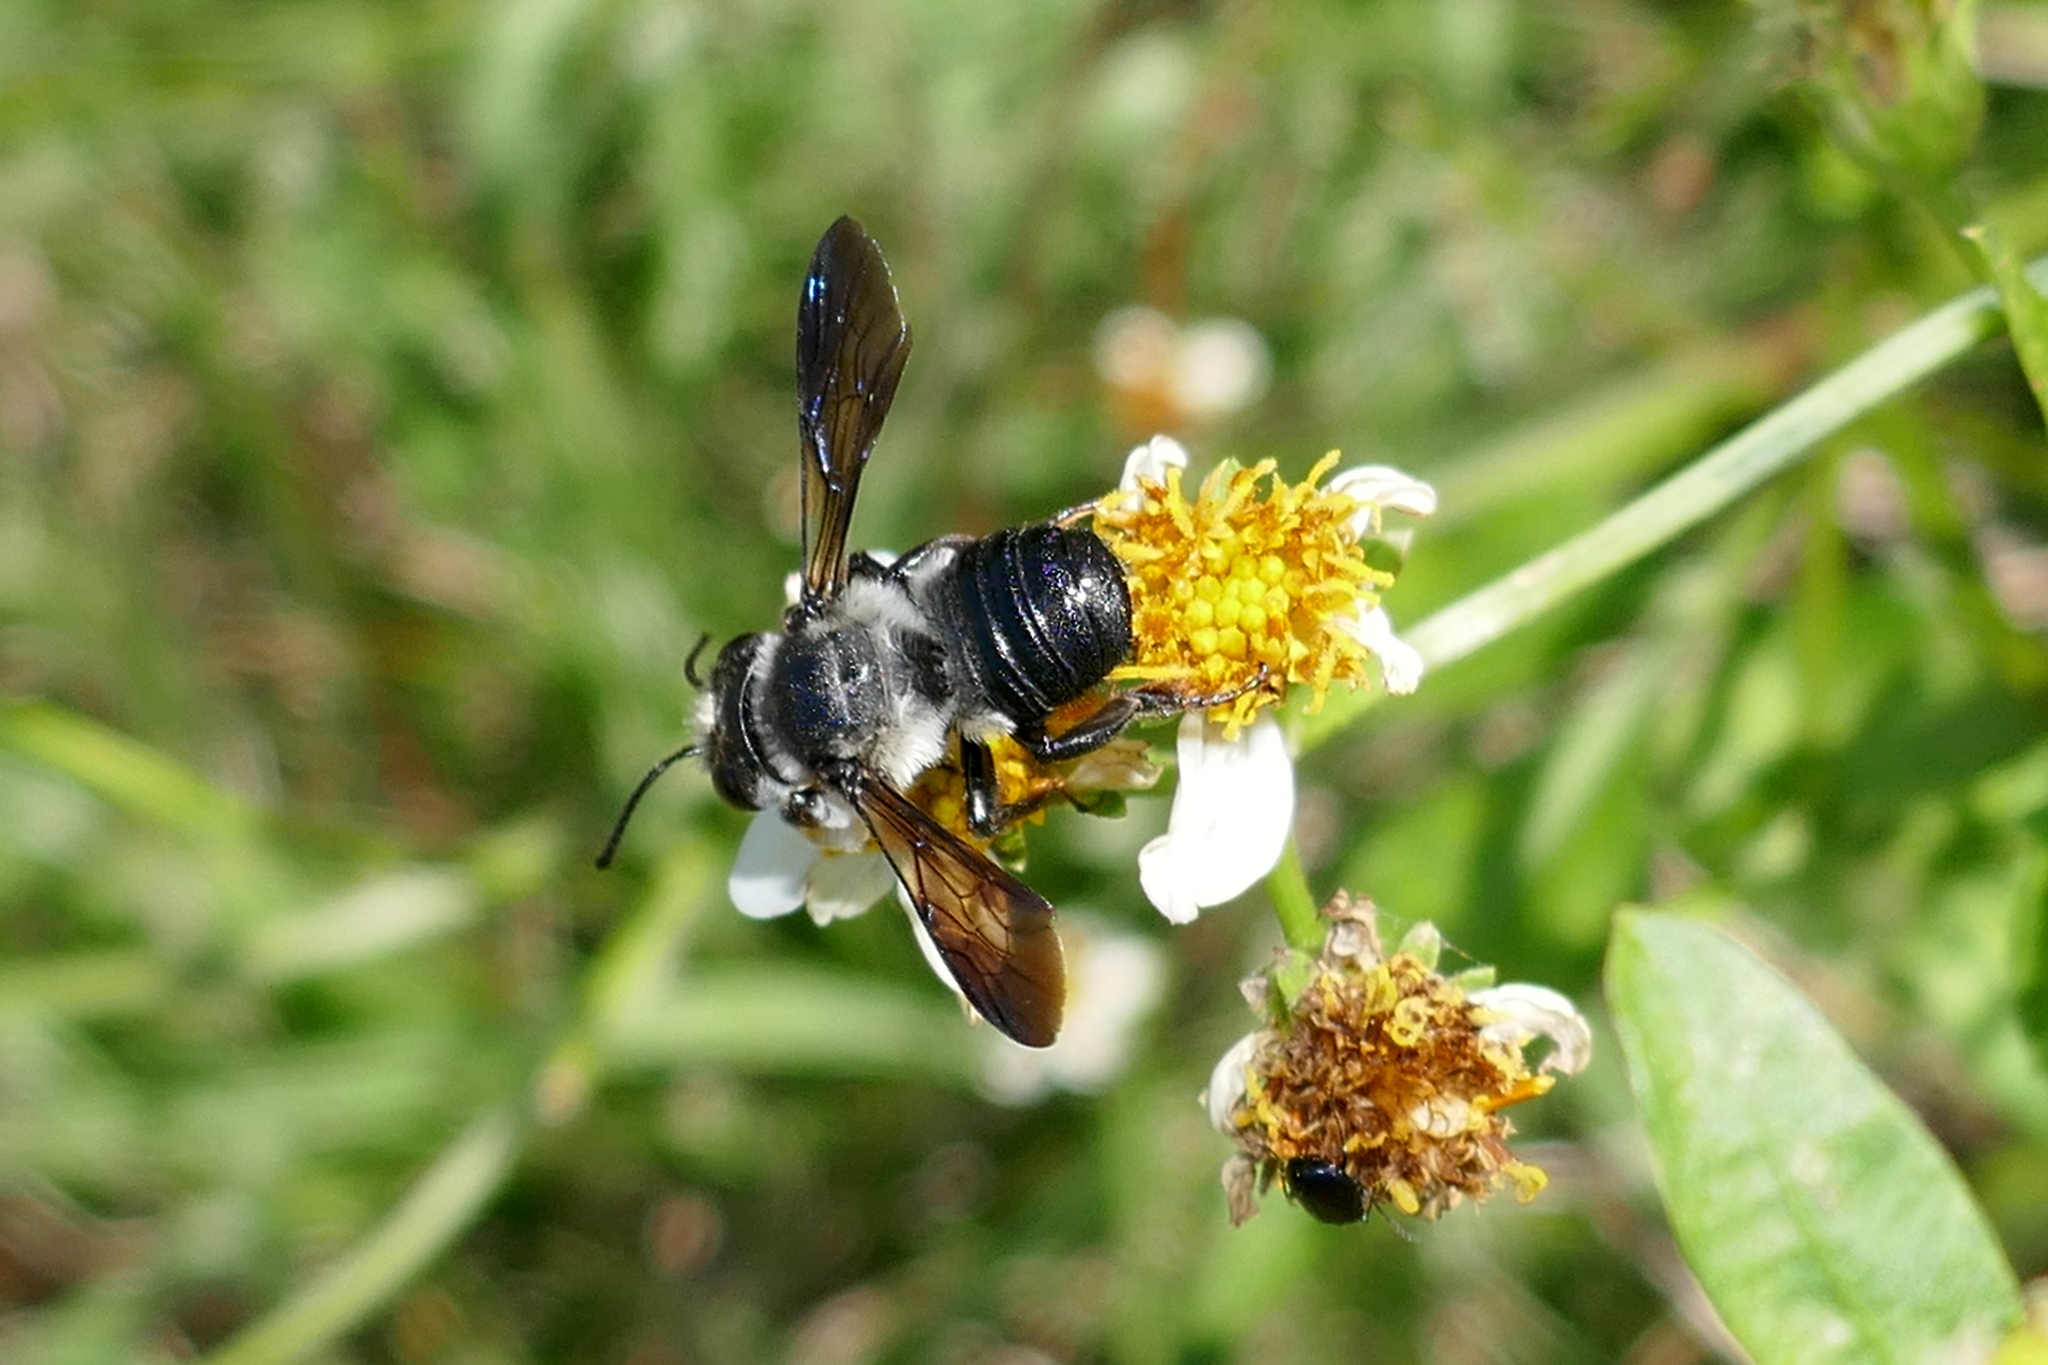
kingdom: Animalia
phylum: Arthropoda
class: Insecta
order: Hymenoptera
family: Megachilidae
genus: Megachile
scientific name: Megachile xylocopoides
